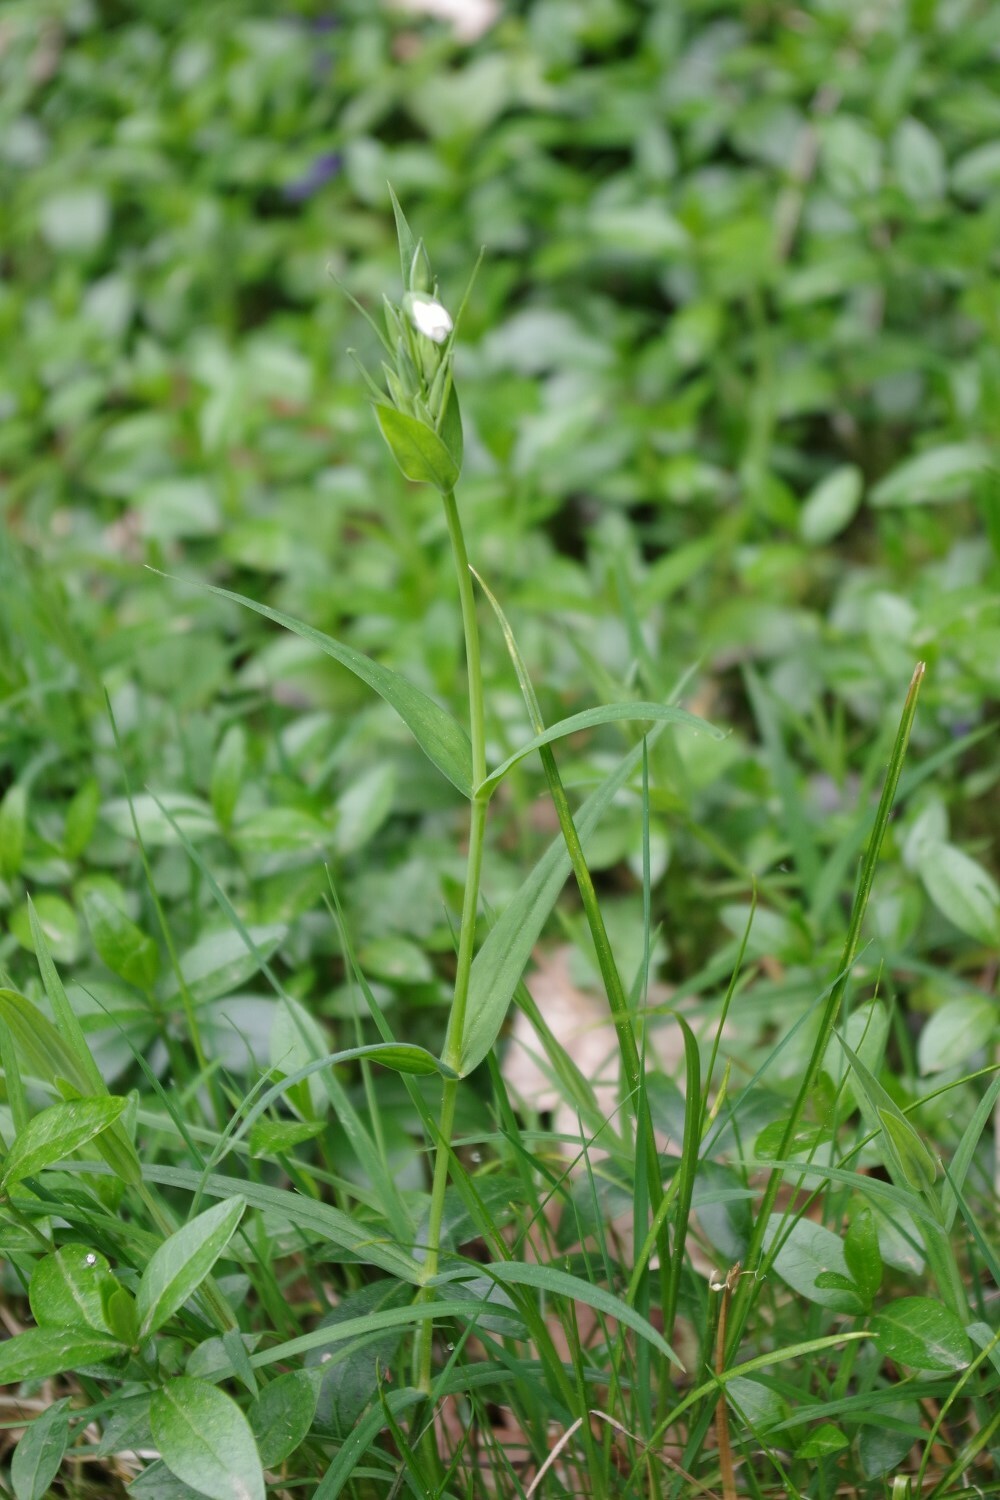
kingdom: Plantae
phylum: Tracheophyta
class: Magnoliopsida
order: Caryophyllales
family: Caryophyllaceae
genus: Rabelera
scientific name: Rabelera holostea
